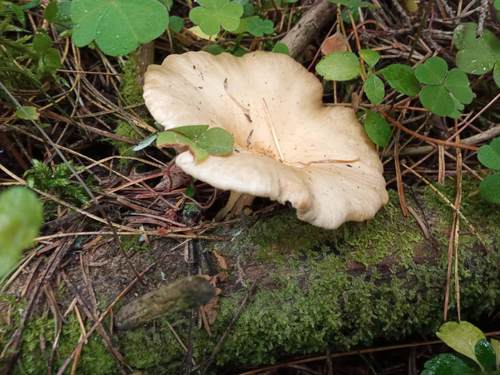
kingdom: Fungi
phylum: Basidiomycota
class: Agaricomycetes
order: Agaricales
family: Tricholomataceae
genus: Infundibulicybe
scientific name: Infundibulicybe gibba
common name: Common funnel
